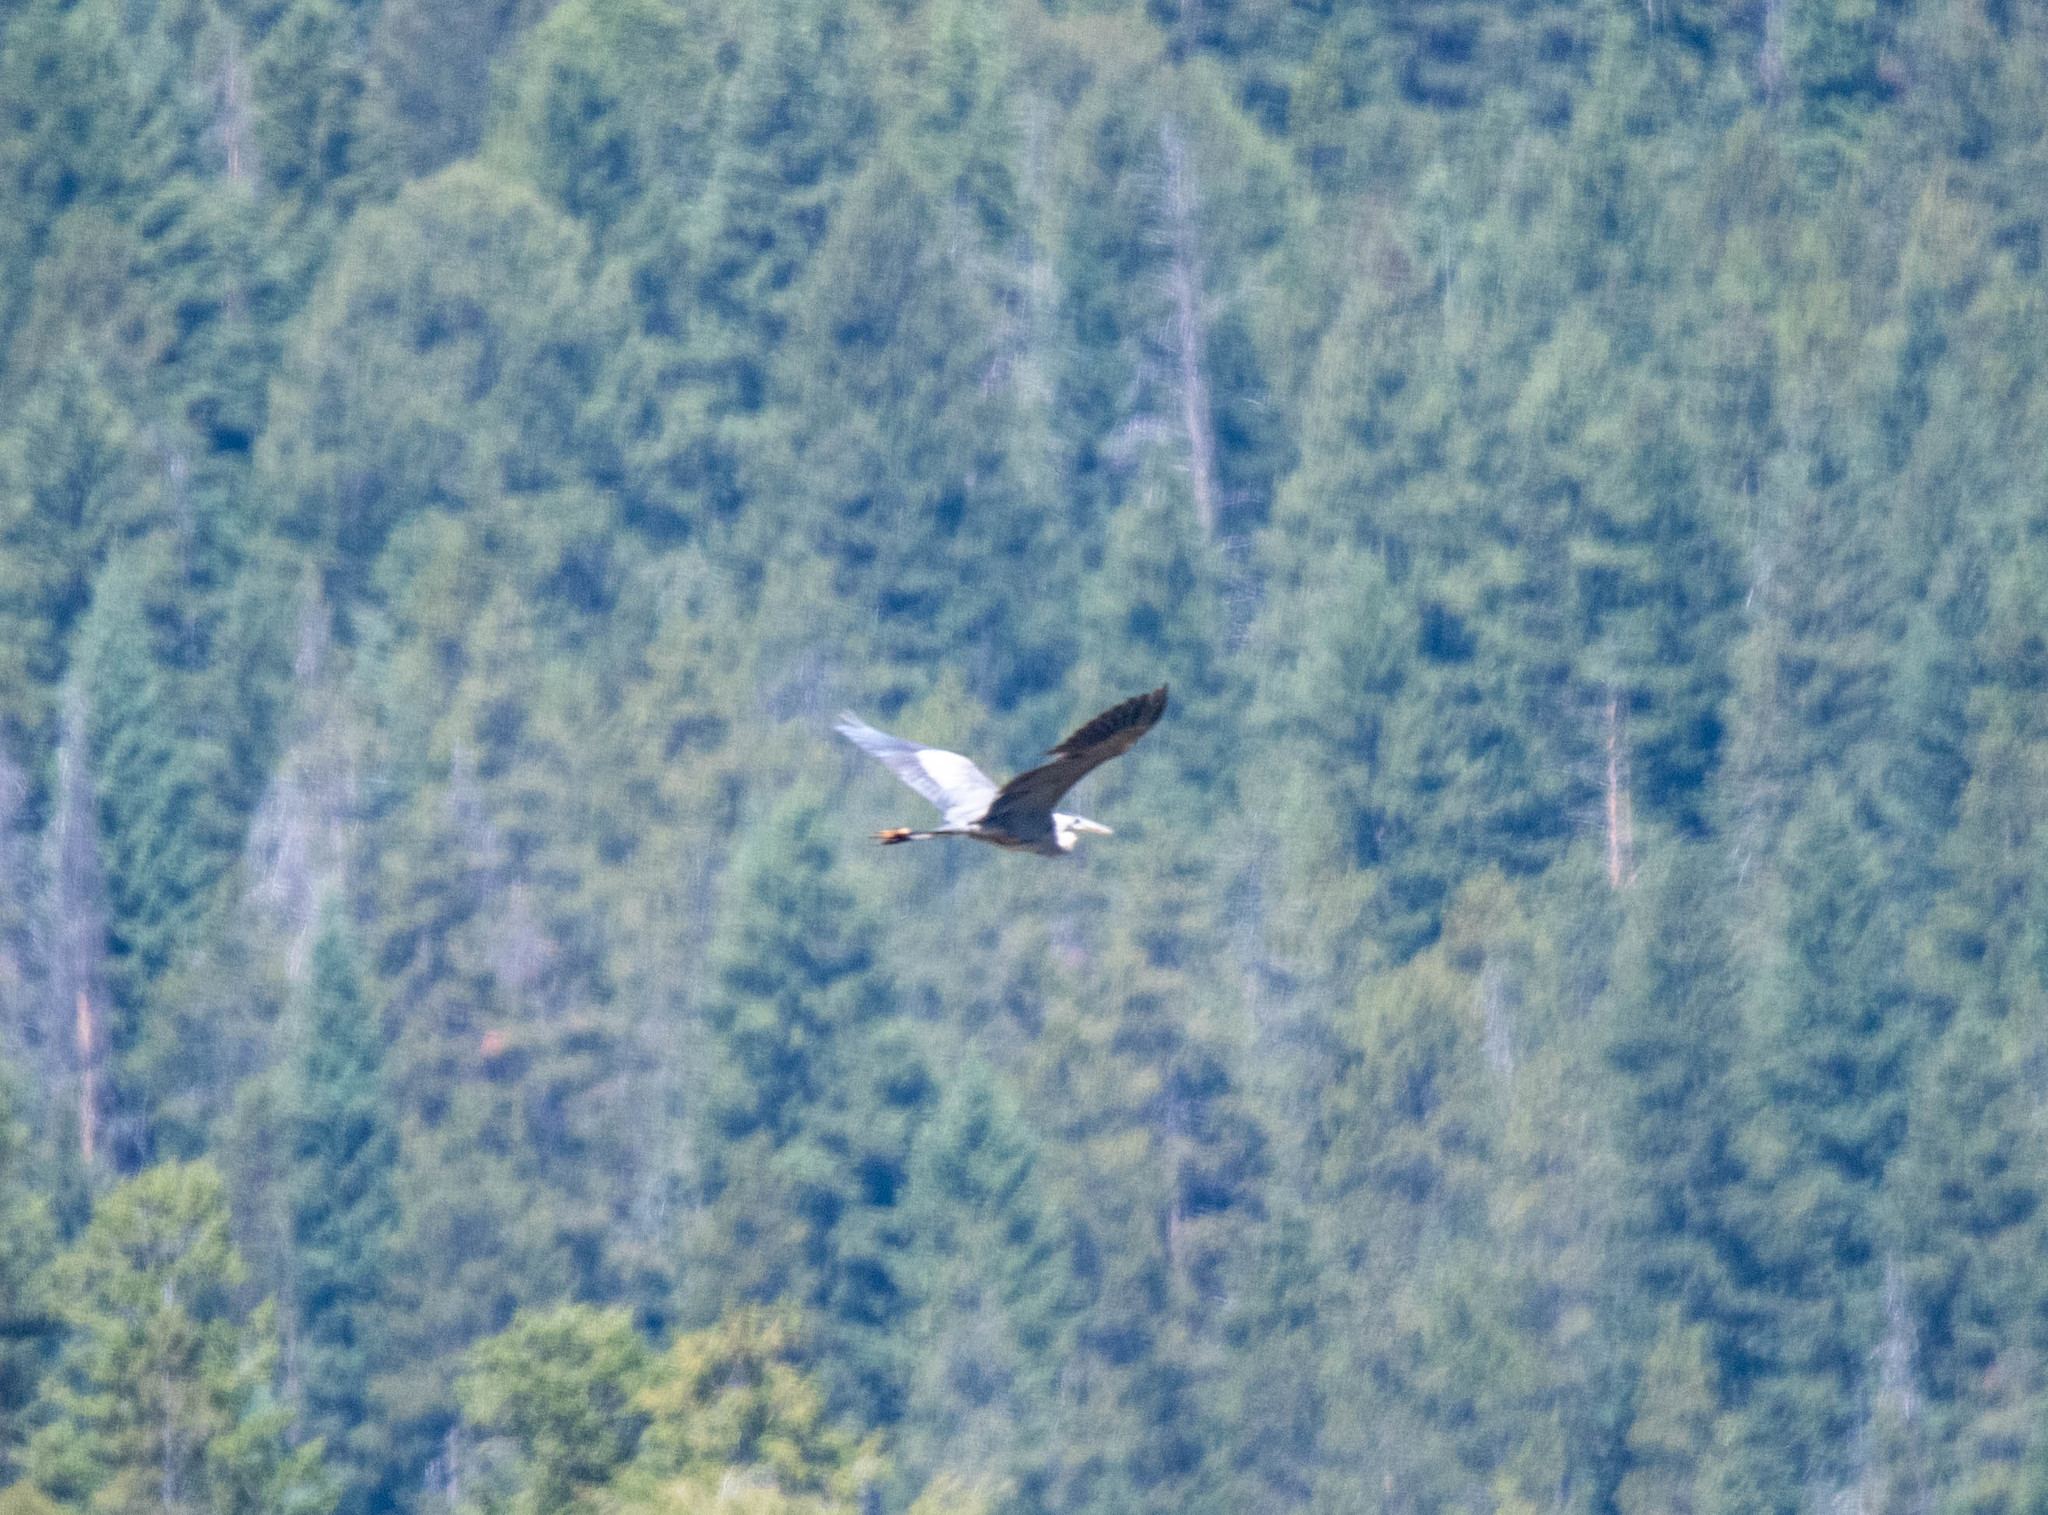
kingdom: Animalia
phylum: Chordata
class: Aves
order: Pelecaniformes
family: Ardeidae
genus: Ardea
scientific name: Ardea herodias
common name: Great blue heron
